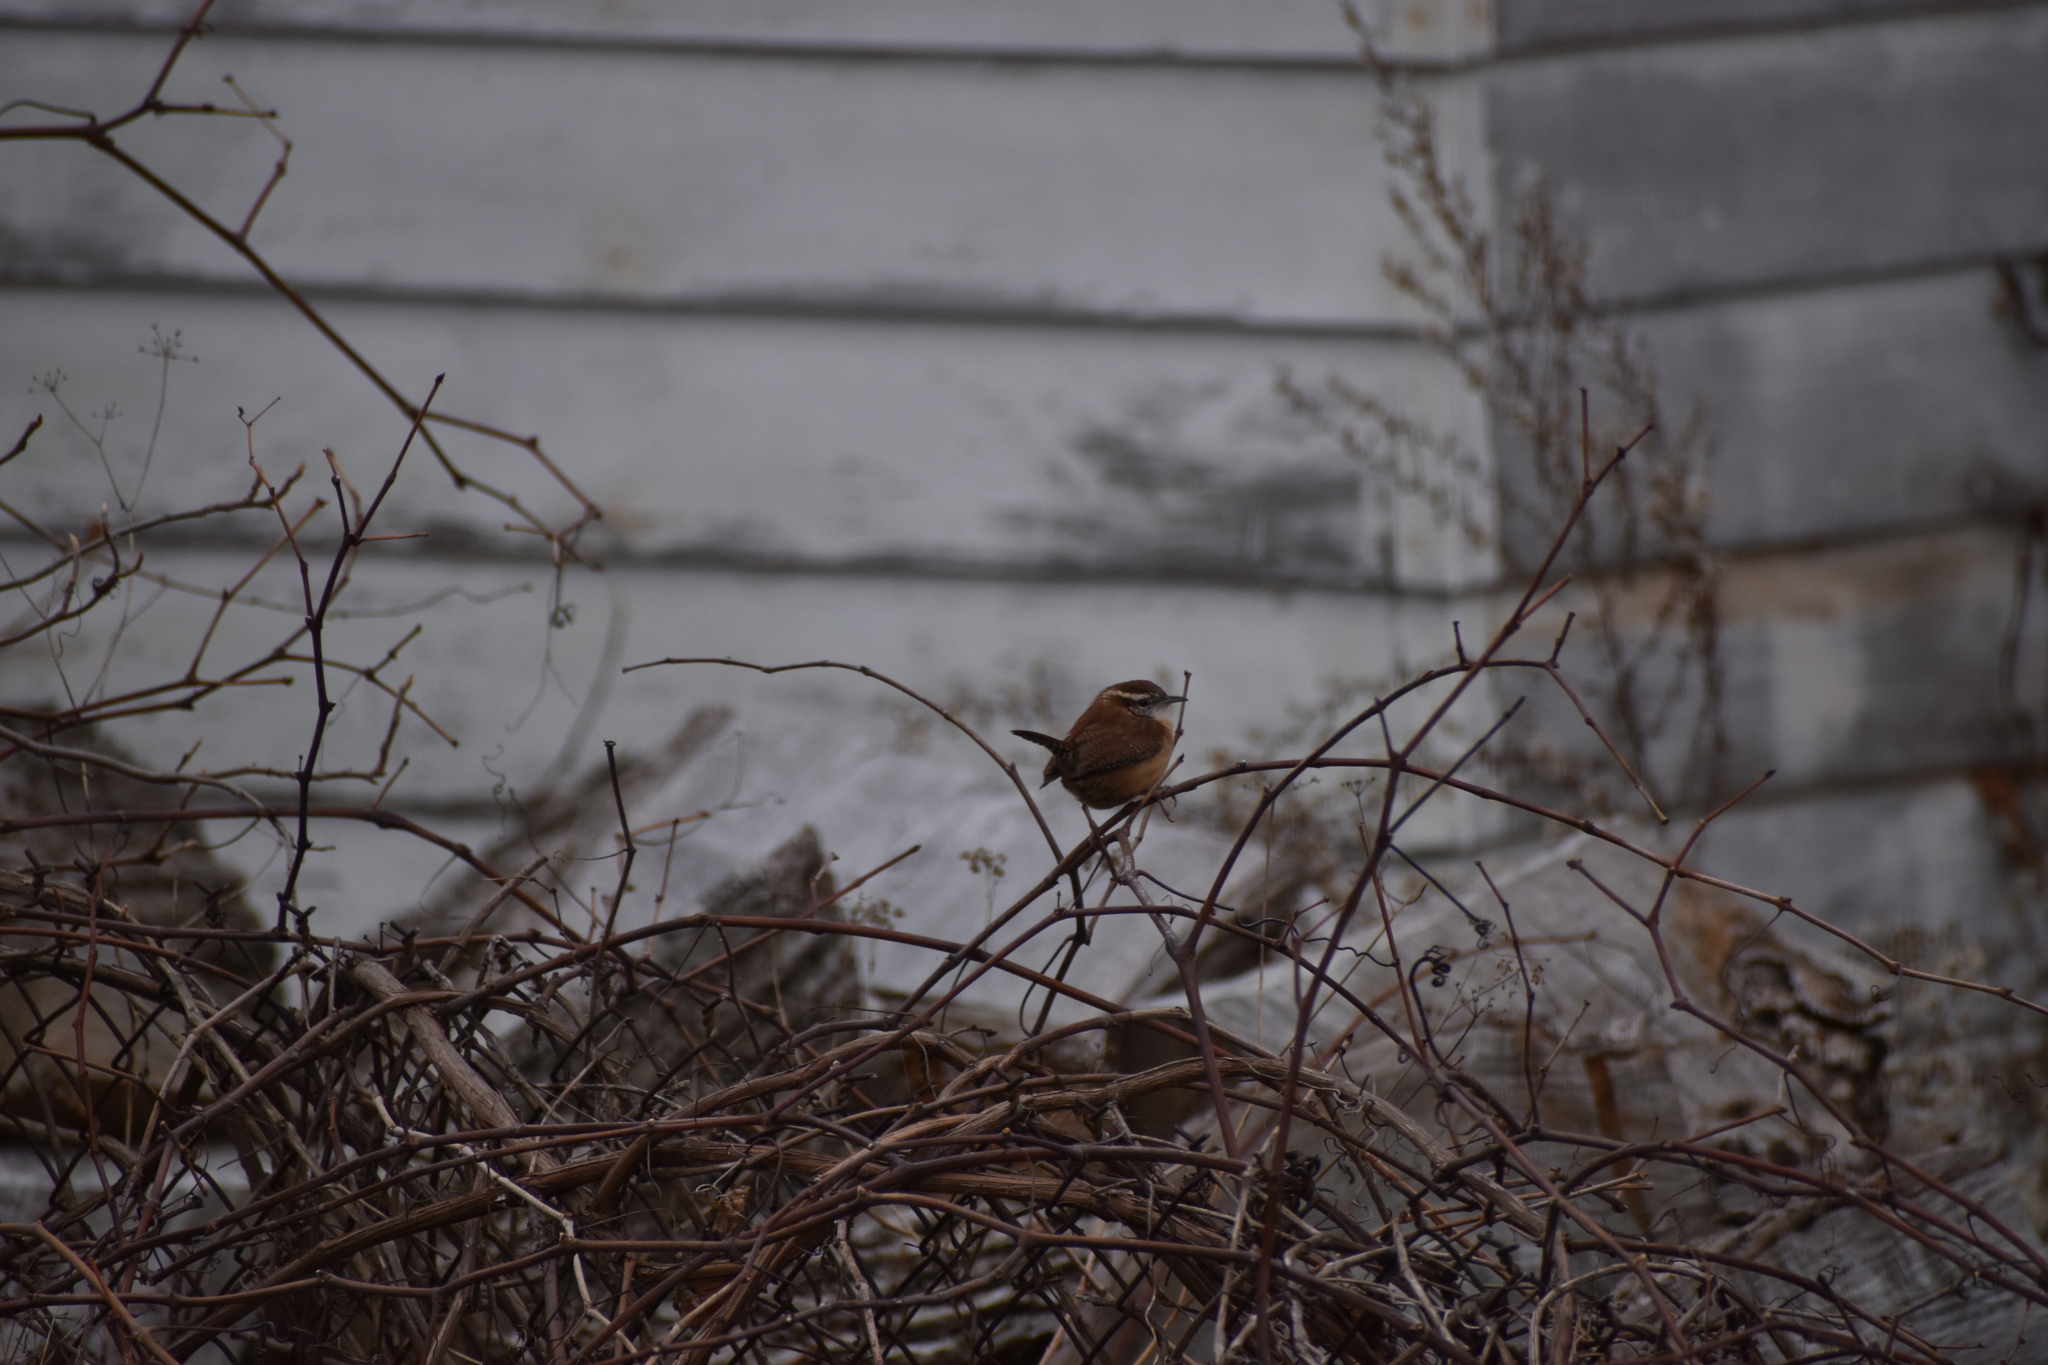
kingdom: Animalia
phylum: Chordata
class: Aves
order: Passeriformes
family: Troglodytidae
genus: Thryothorus
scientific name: Thryothorus ludovicianus
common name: Carolina wren
